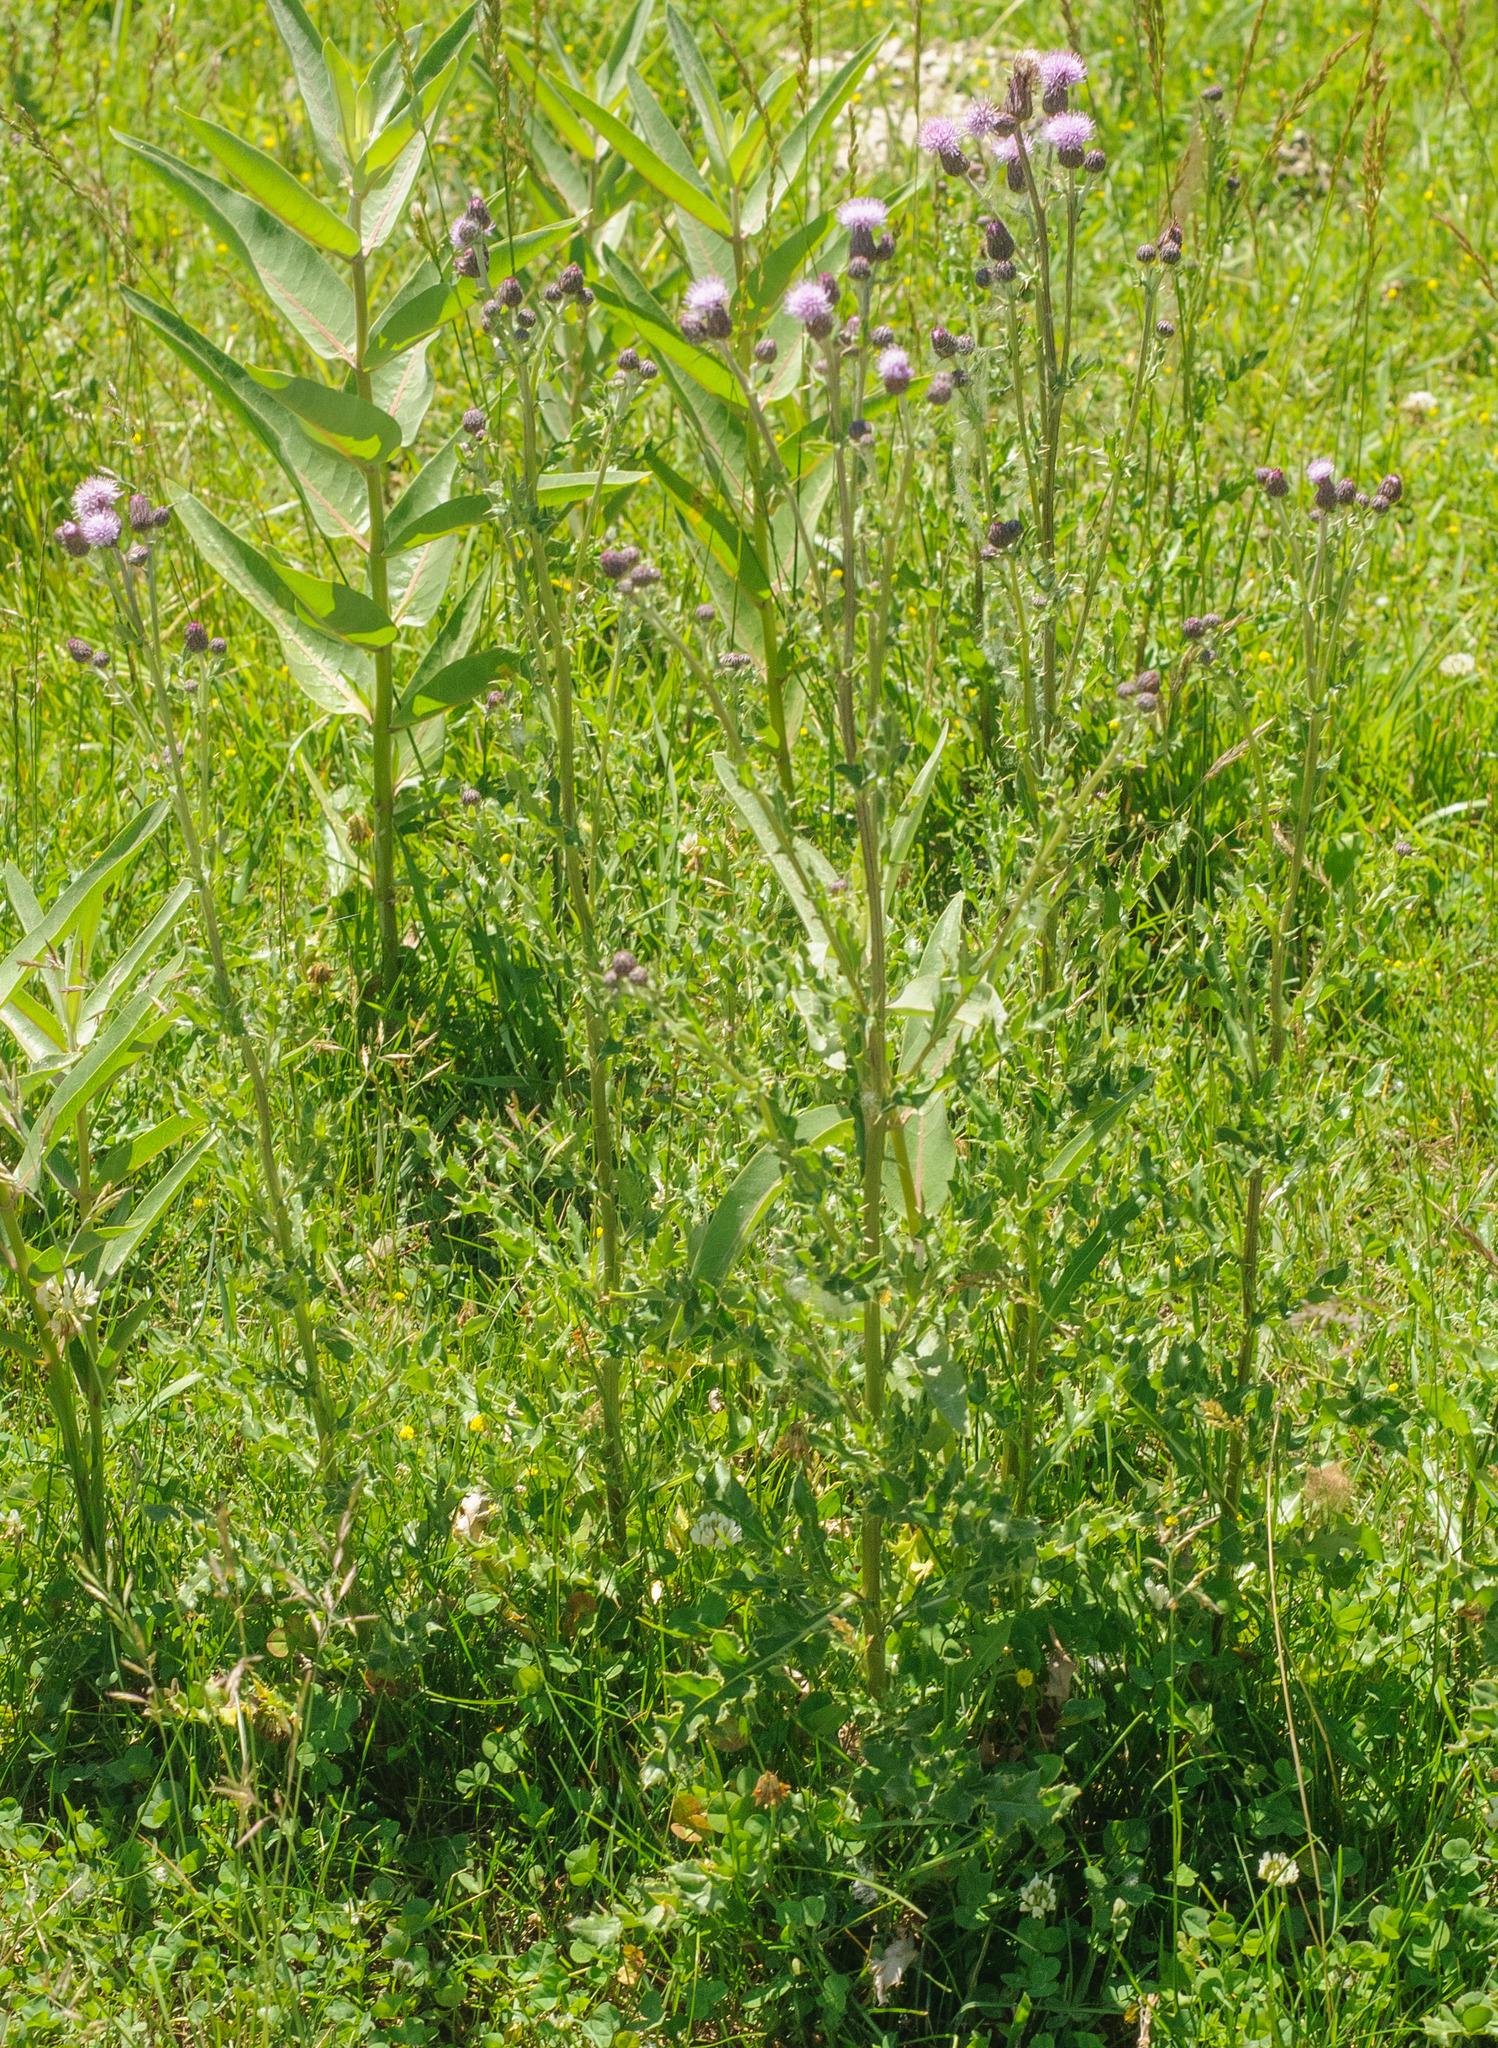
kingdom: Plantae
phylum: Tracheophyta
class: Magnoliopsida
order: Asterales
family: Asteraceae
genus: Cirsium
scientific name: Cirsium arvense
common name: Creeping thistle
